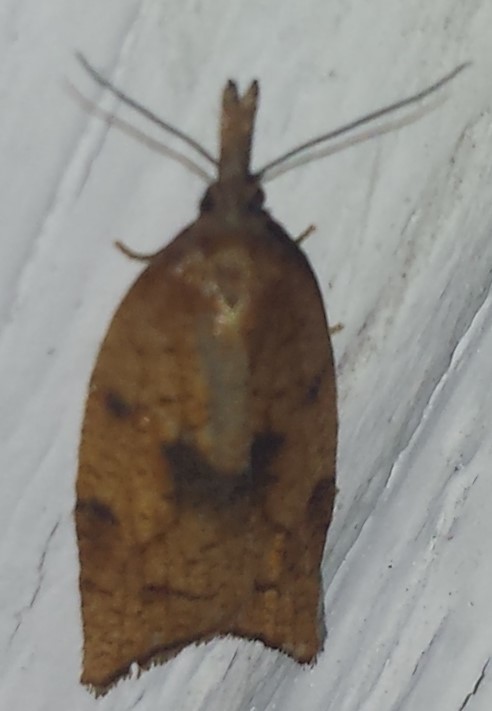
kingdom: Animalia
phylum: Arthropoda
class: Insecta
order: Lepidoptera
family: Tortricidae
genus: Sparganothis
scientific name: Sparganothis xanthoides
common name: Mosaic sparganothis moth
